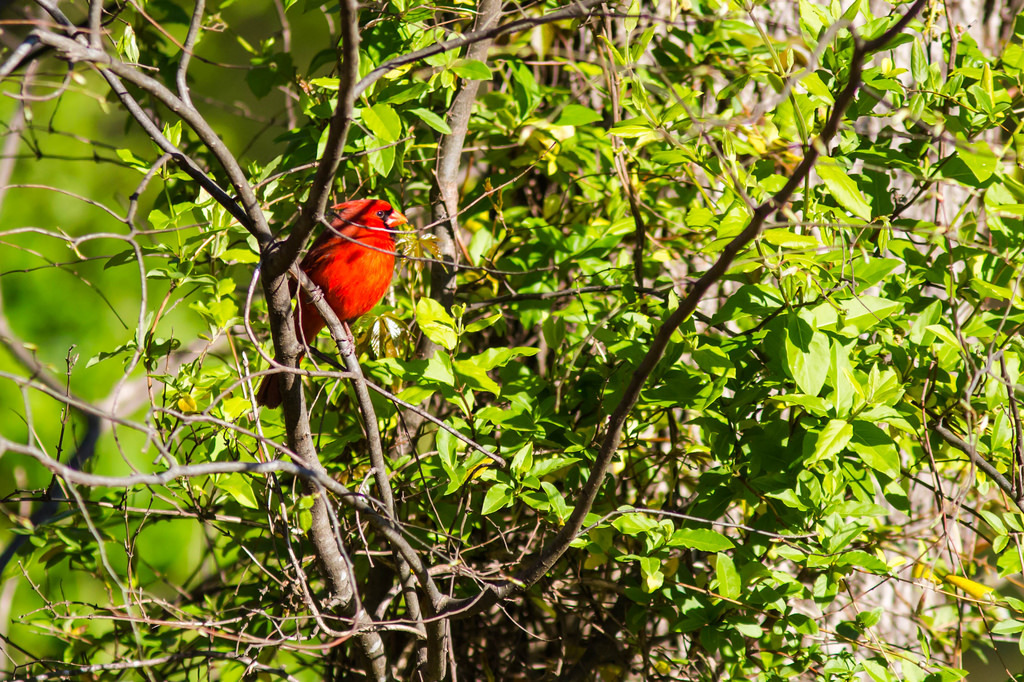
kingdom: Animalia
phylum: Chordata
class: Aves
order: Passeriformes
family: Cardinalidae
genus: Cardinalis
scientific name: Cardinalis cardinalis
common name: Northern cardinal
